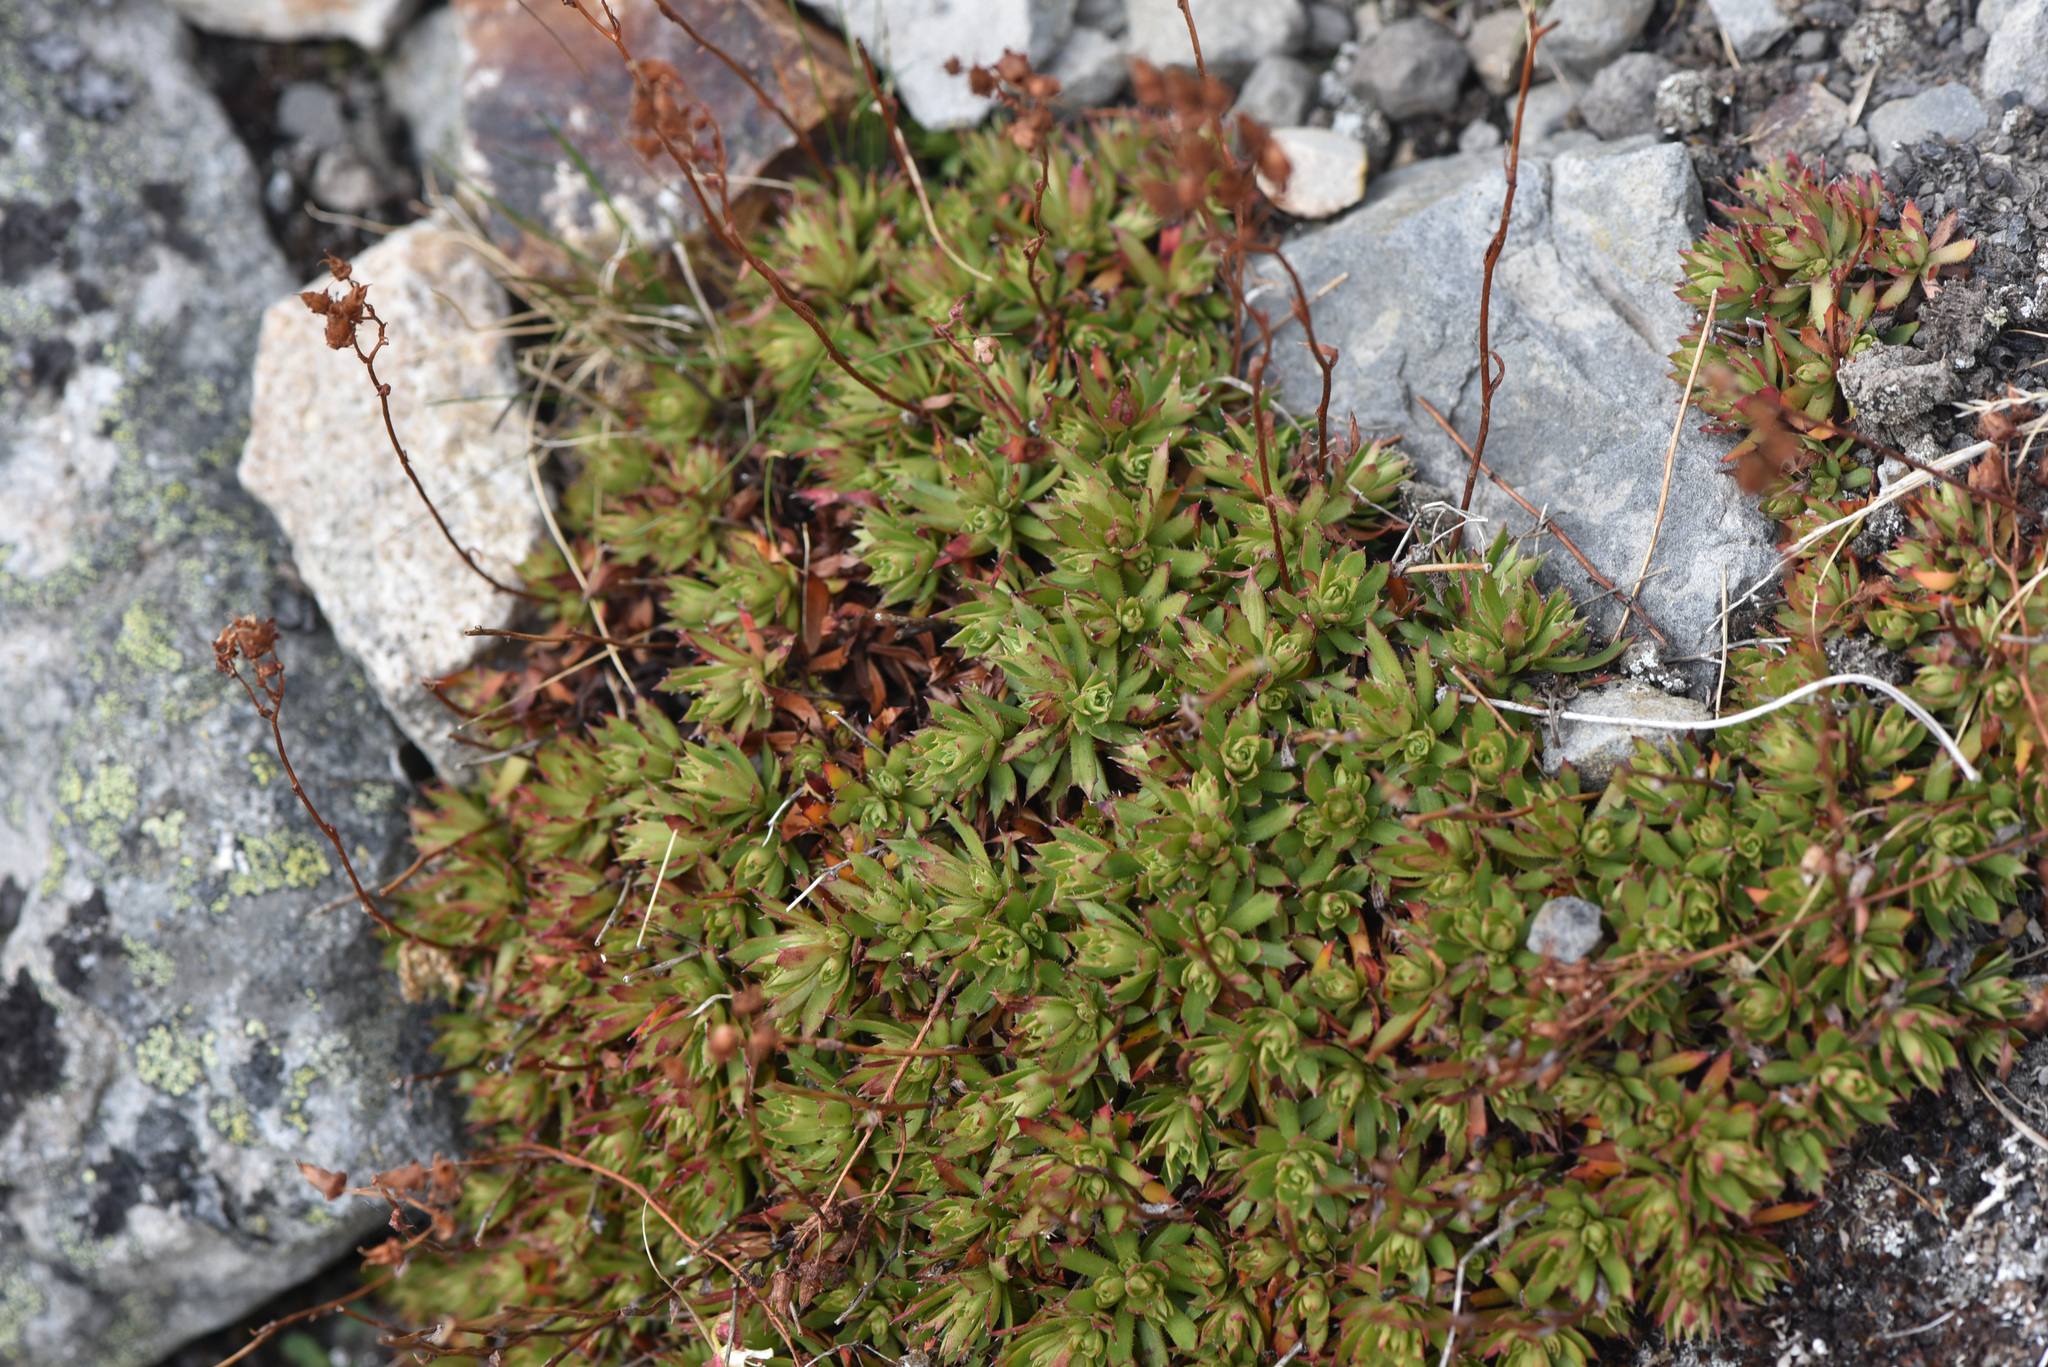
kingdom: Plantae
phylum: Tracheophyta
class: Magnoliopsida
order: Saxifragales
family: Saxifragaceae
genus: Saxifraga
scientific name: Saxifraga tricuspidata
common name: Prickly saxifrage
